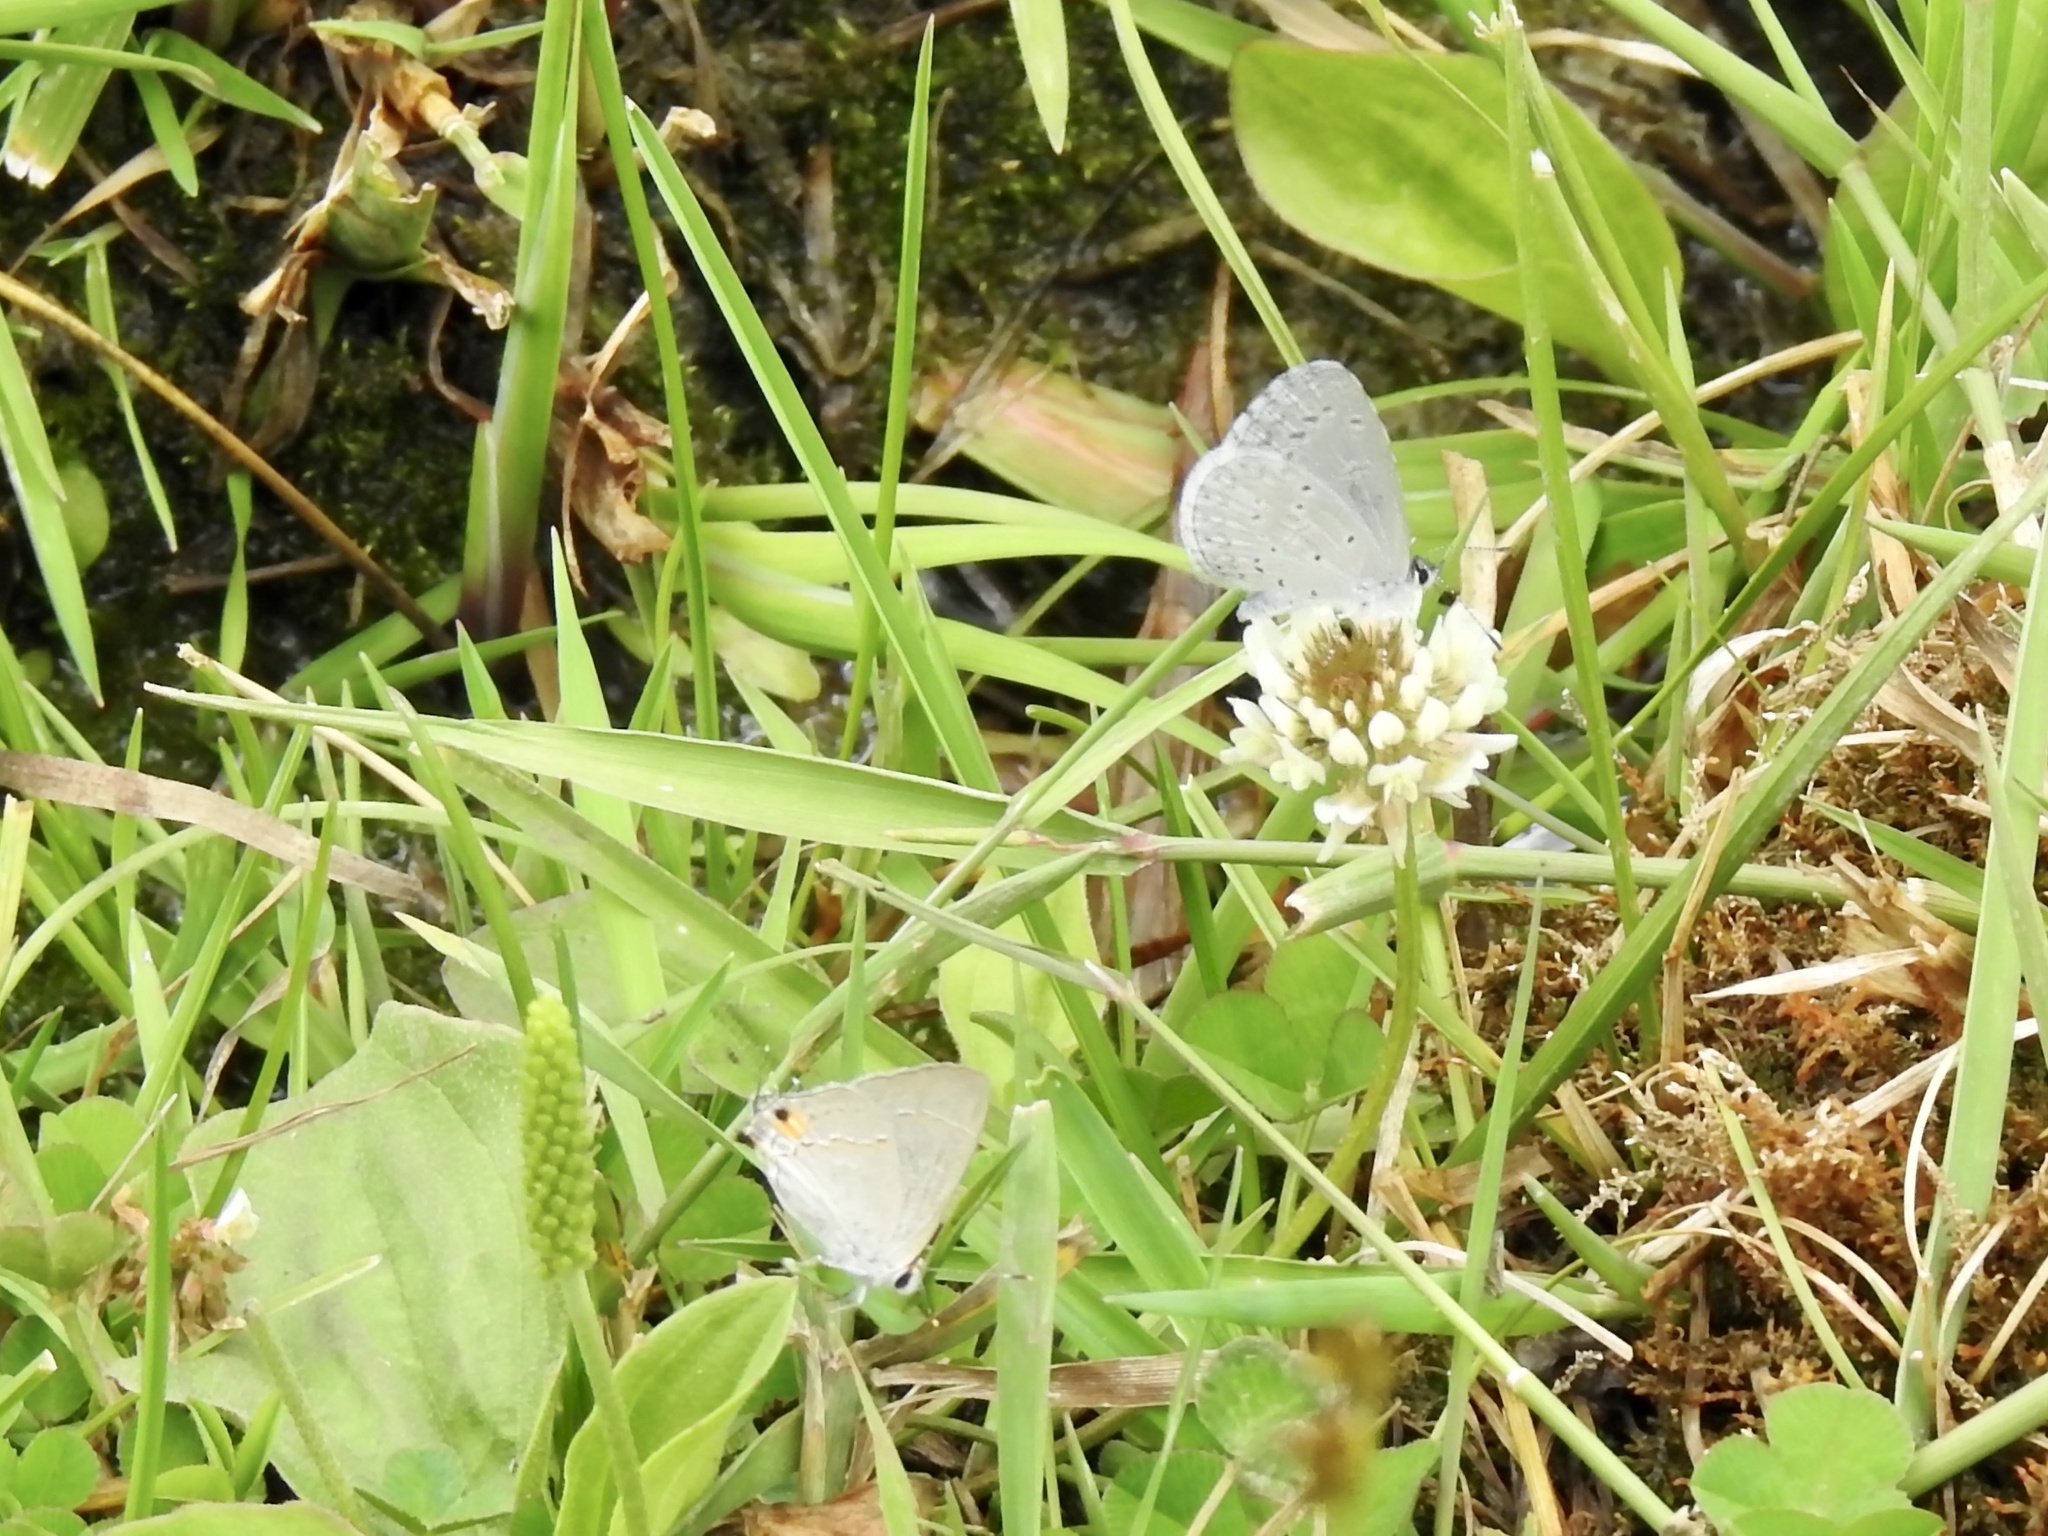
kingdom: Animalia
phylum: Arthropoda
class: Insecta
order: Lepidoptera
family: Lycaenidae
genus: Strymon
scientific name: Strymon melinus
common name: Gray hairstreak
